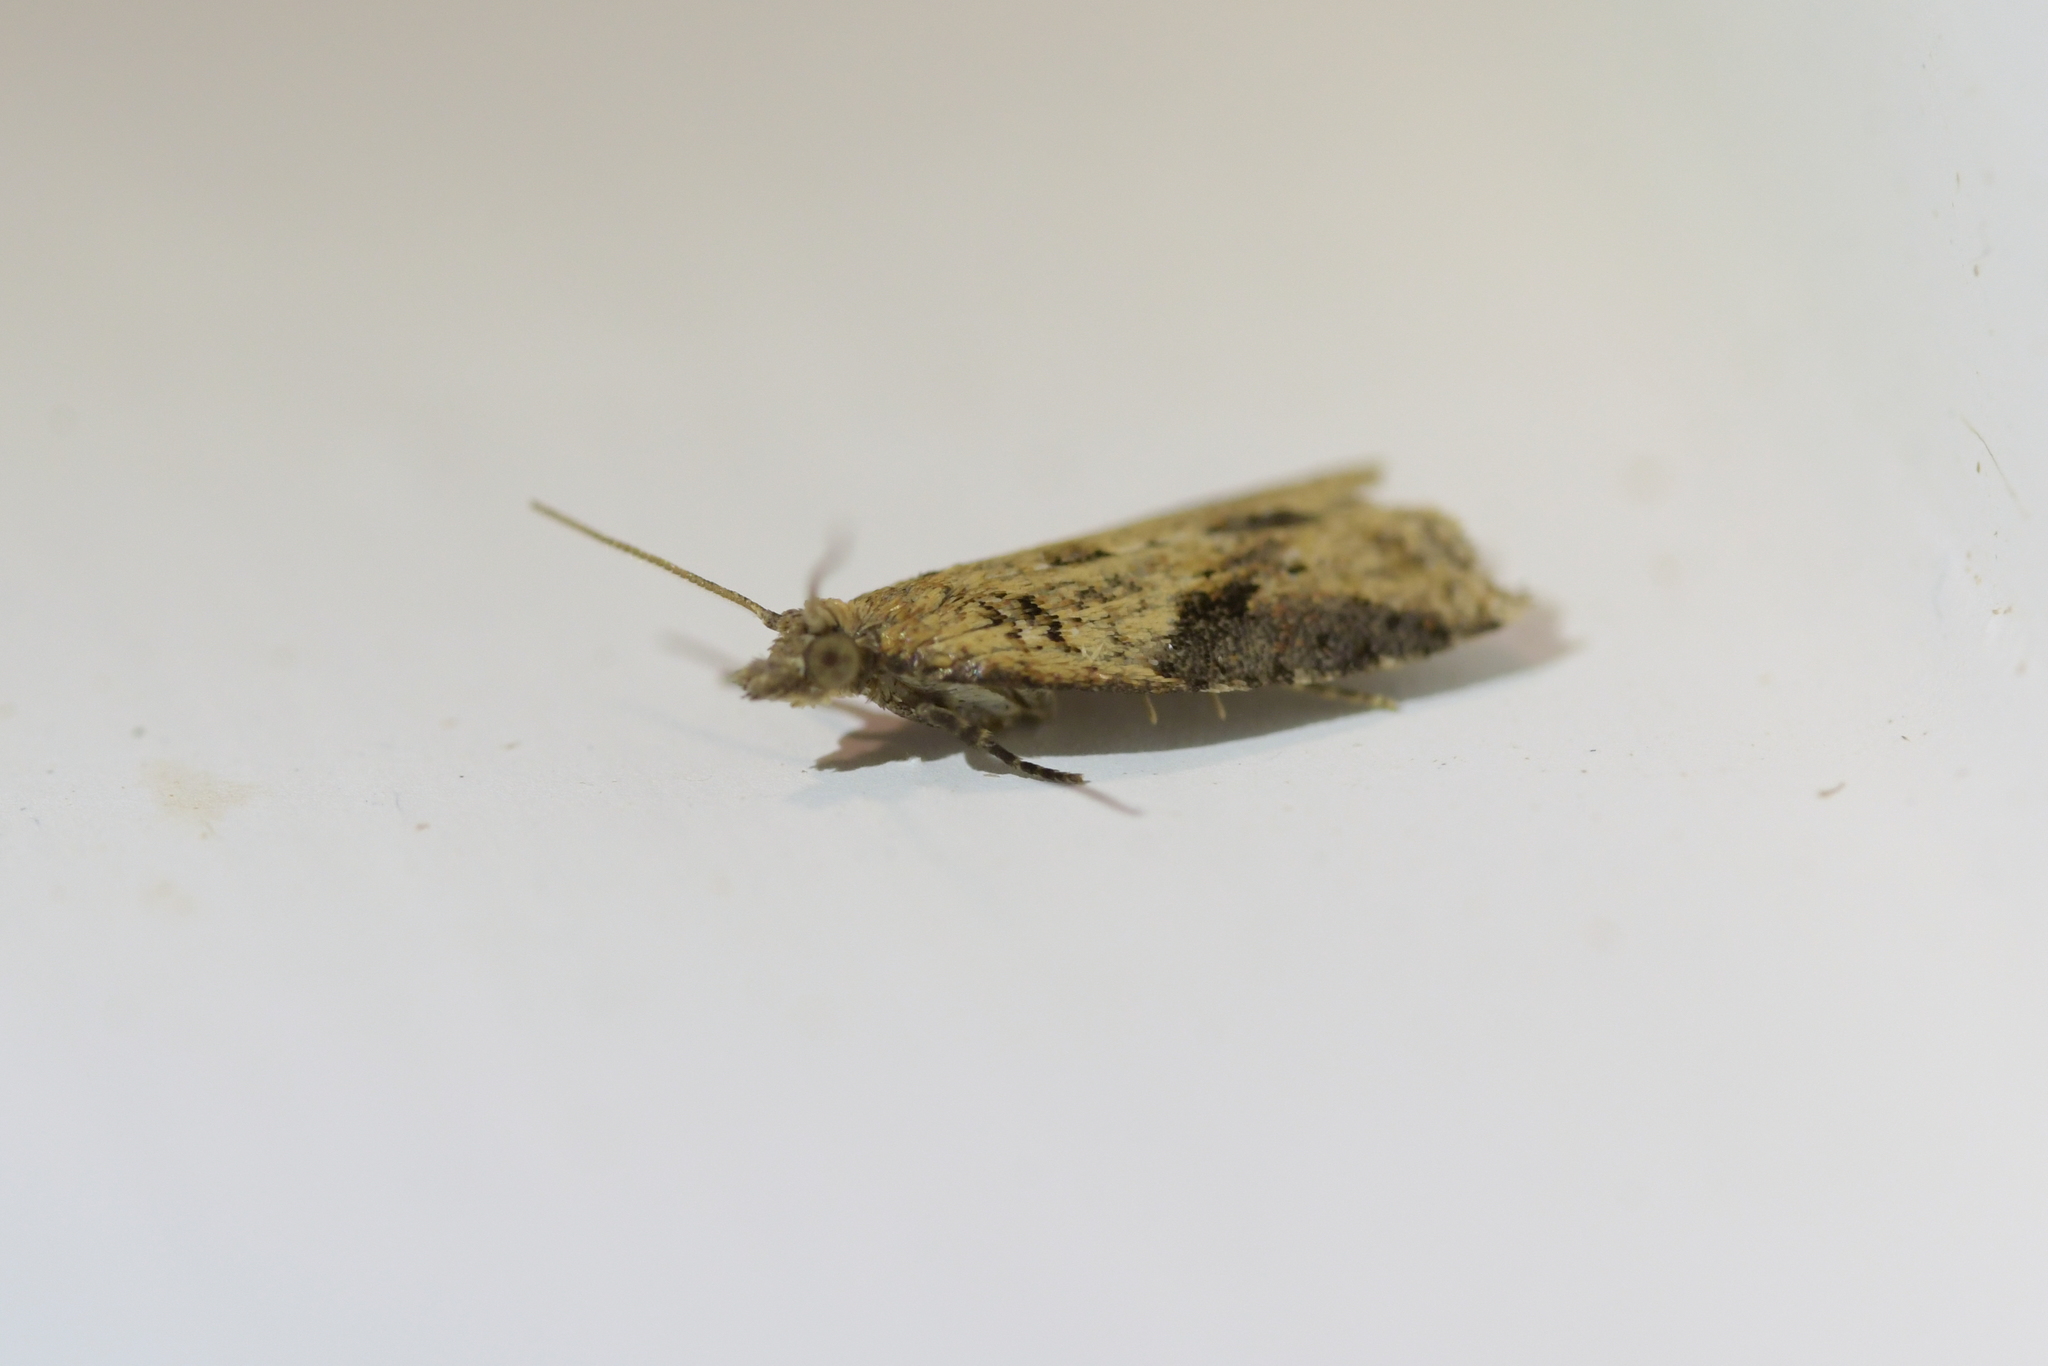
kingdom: Animalia
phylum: Arthropoda
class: Insecta
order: Lepidoptera
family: Tortricidae
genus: Capua
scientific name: Capua semiferana
